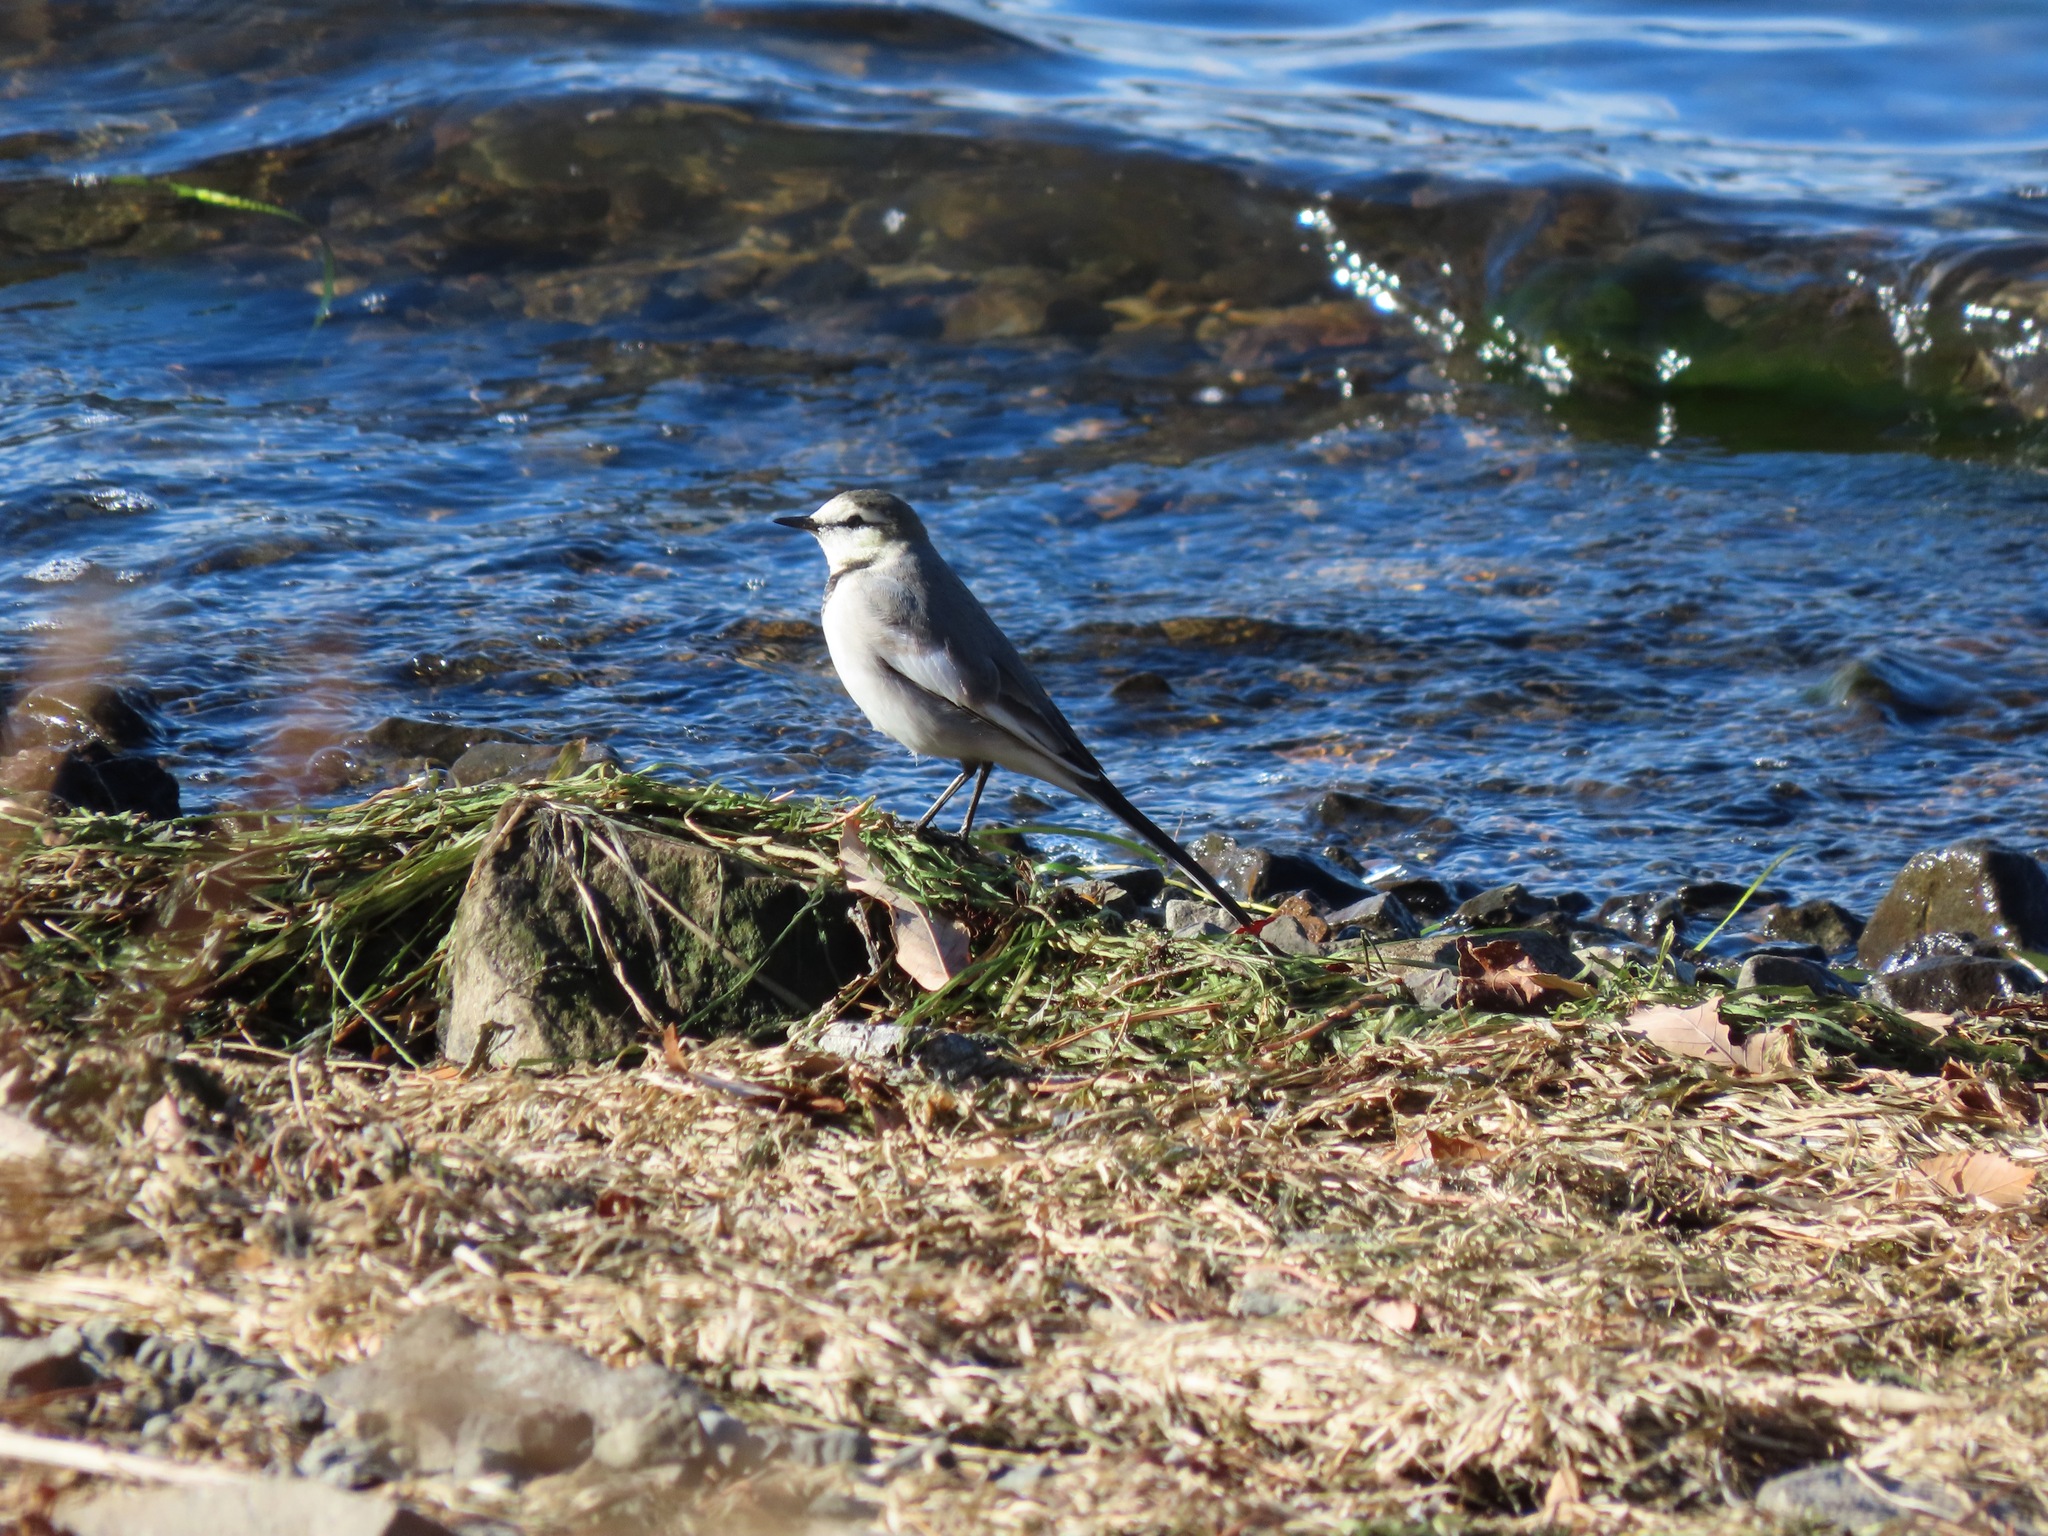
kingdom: Animalia
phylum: Chordata
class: Aves
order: Passeriformes
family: Motacillidae
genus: Motacilla
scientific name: Motacilla alba
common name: White wagtail
